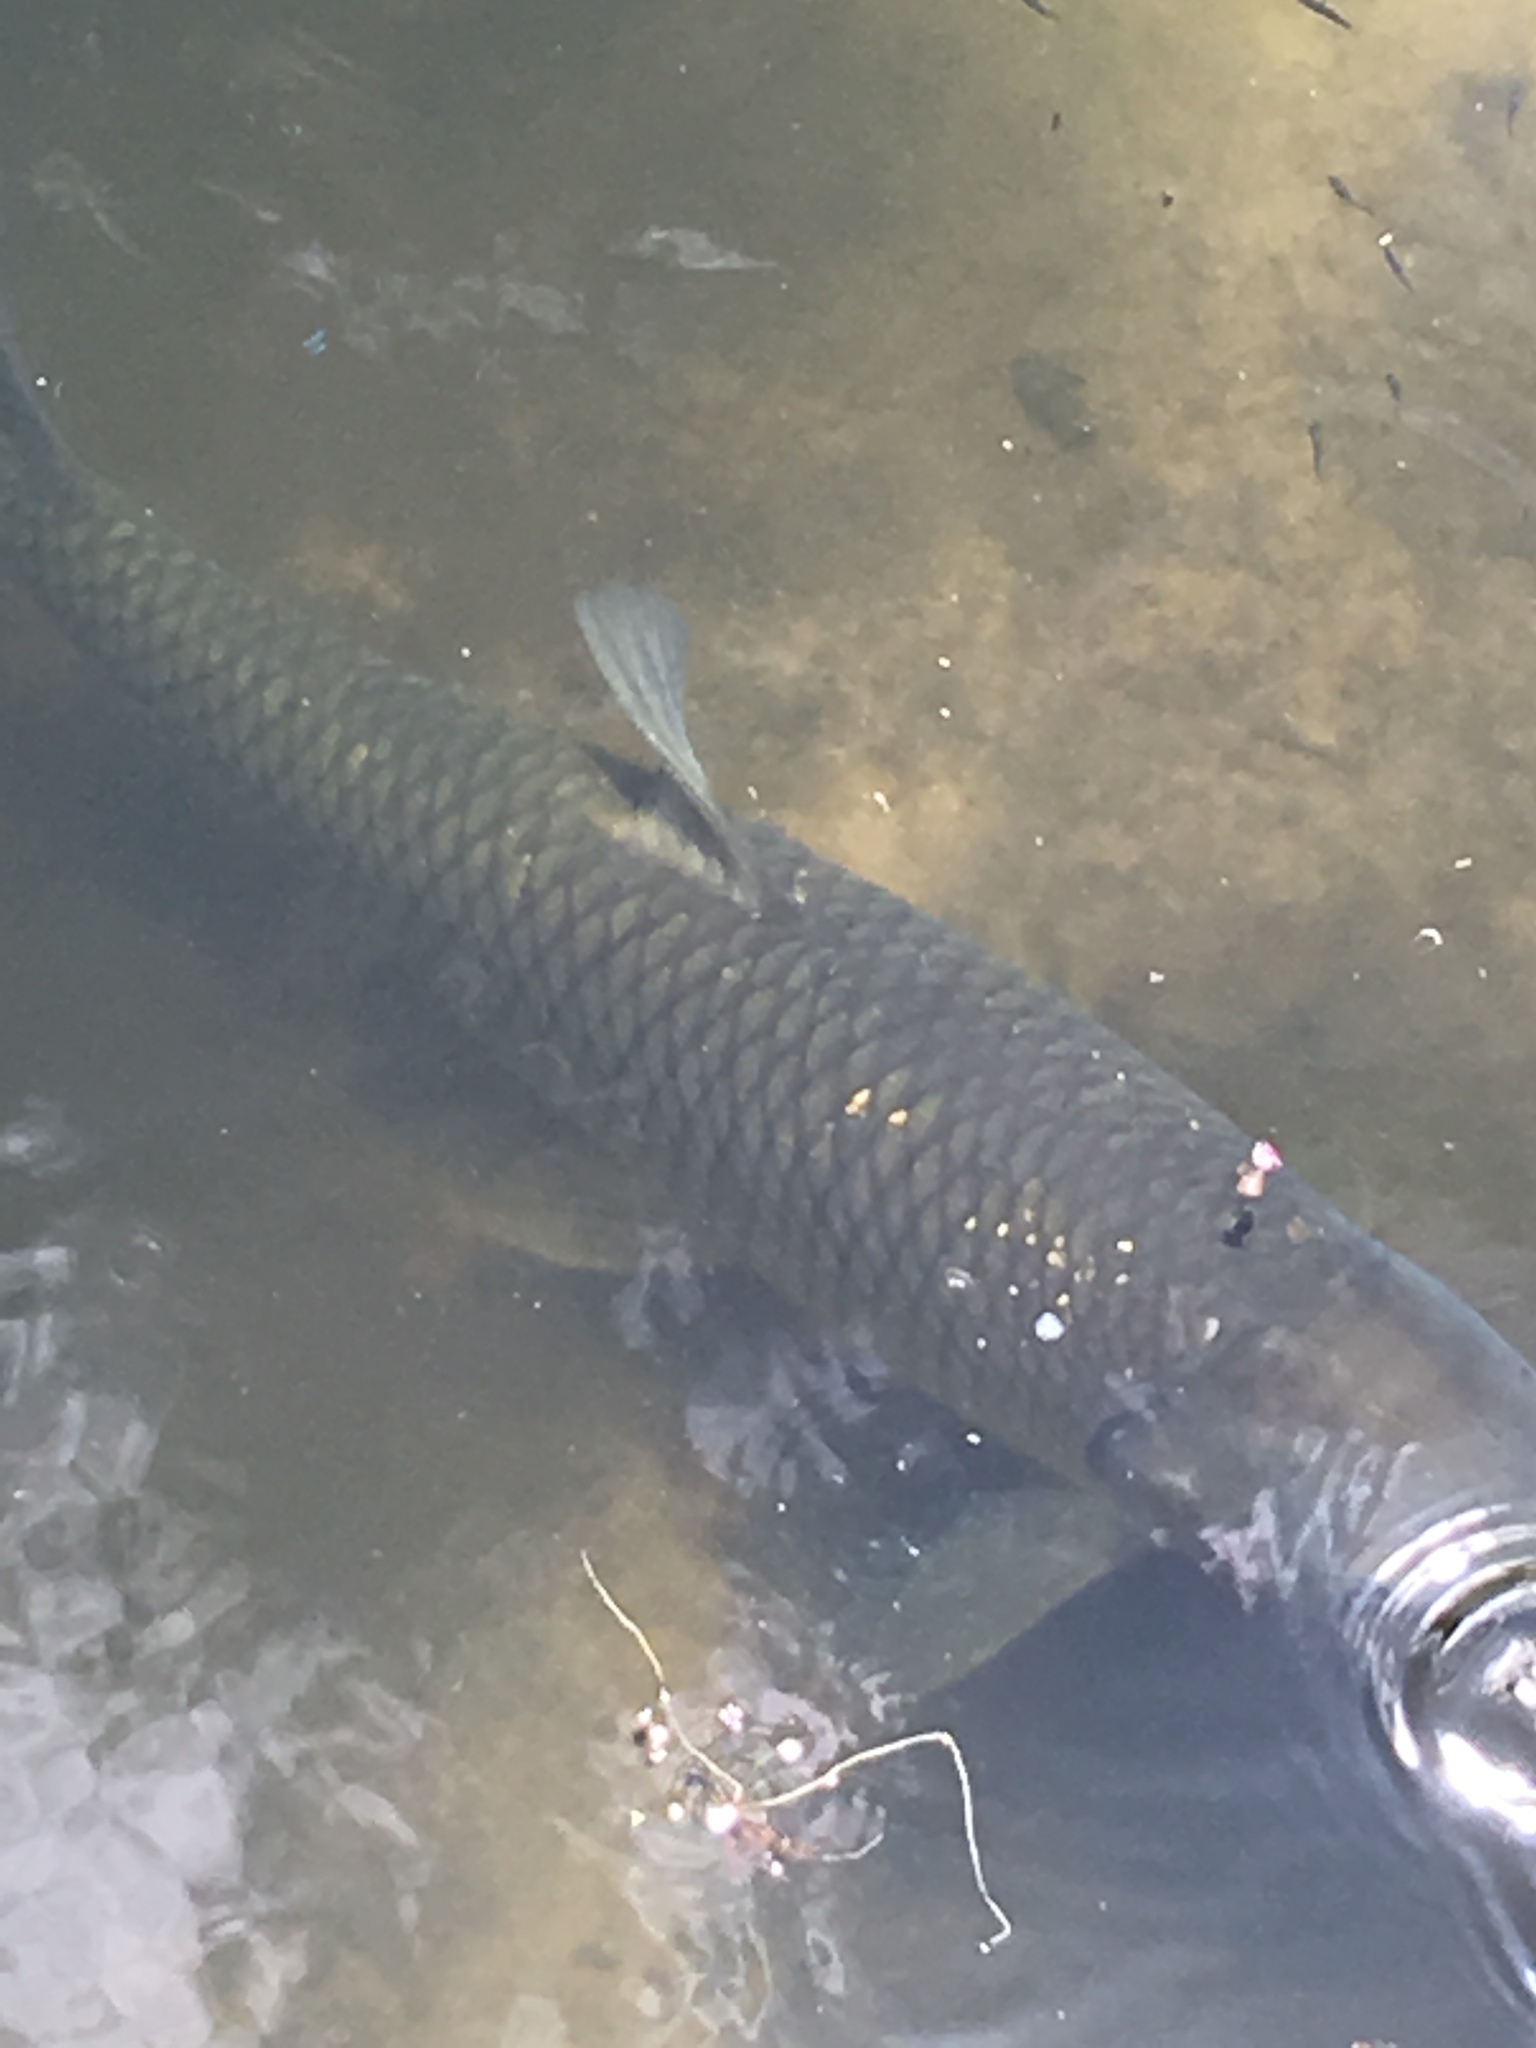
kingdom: Animalia
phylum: Chordata
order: Cypriniformes
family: Cyprinidae
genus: Ctenopharyngodon
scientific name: Ctenopharyngodon idella
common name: Grass carp
